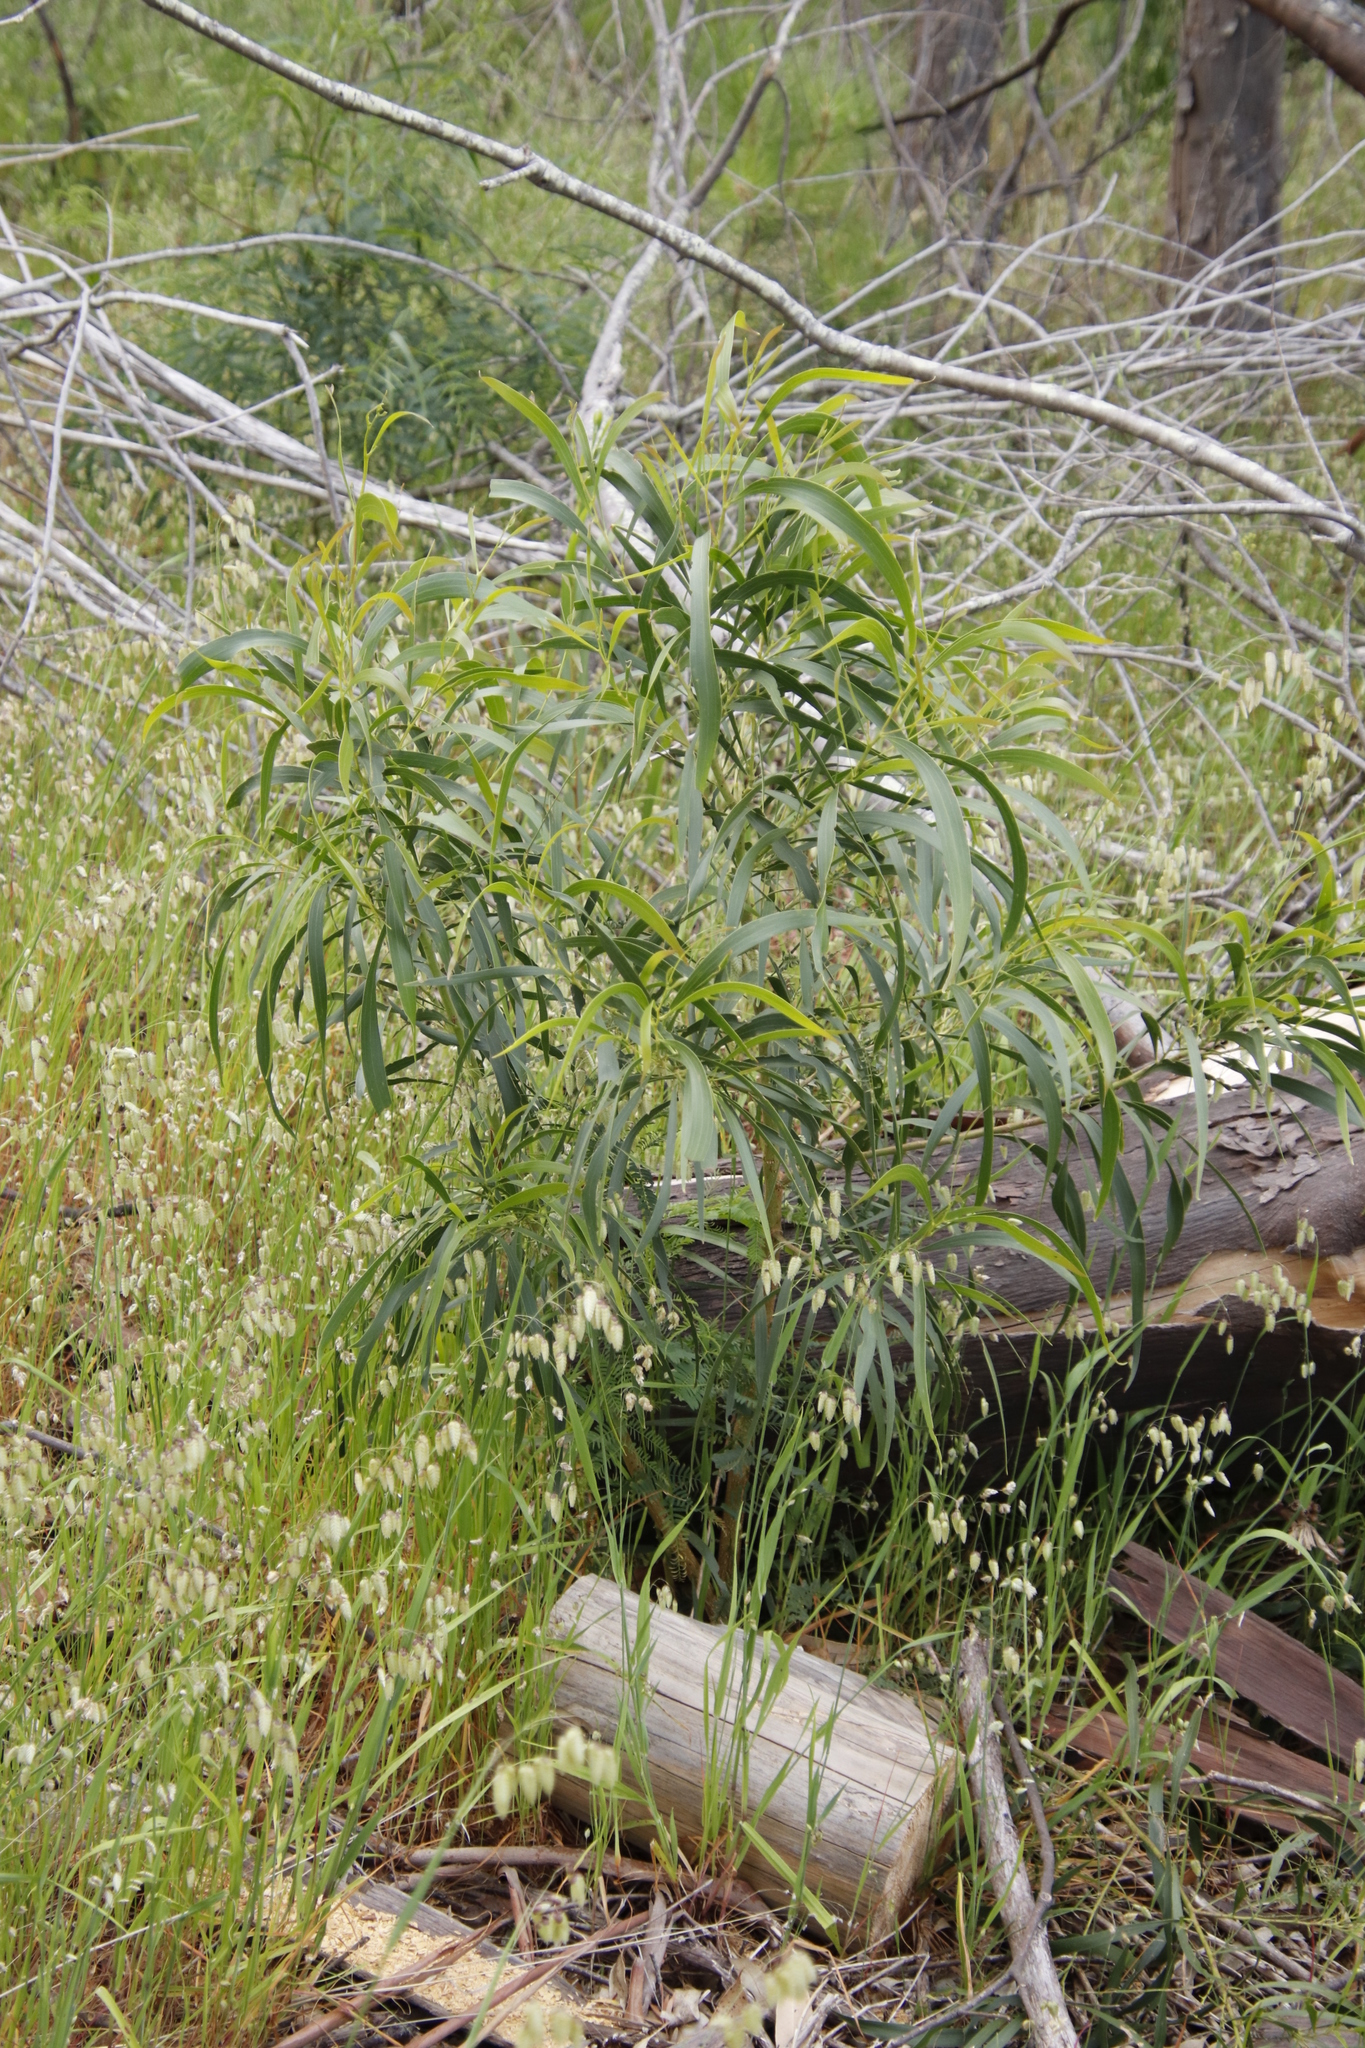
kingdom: Plantae
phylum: Tracheophyta
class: Magnoliopsida
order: Fabales
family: Fabaceae
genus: Acacia
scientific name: Acacia saligna
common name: Orange wattle
